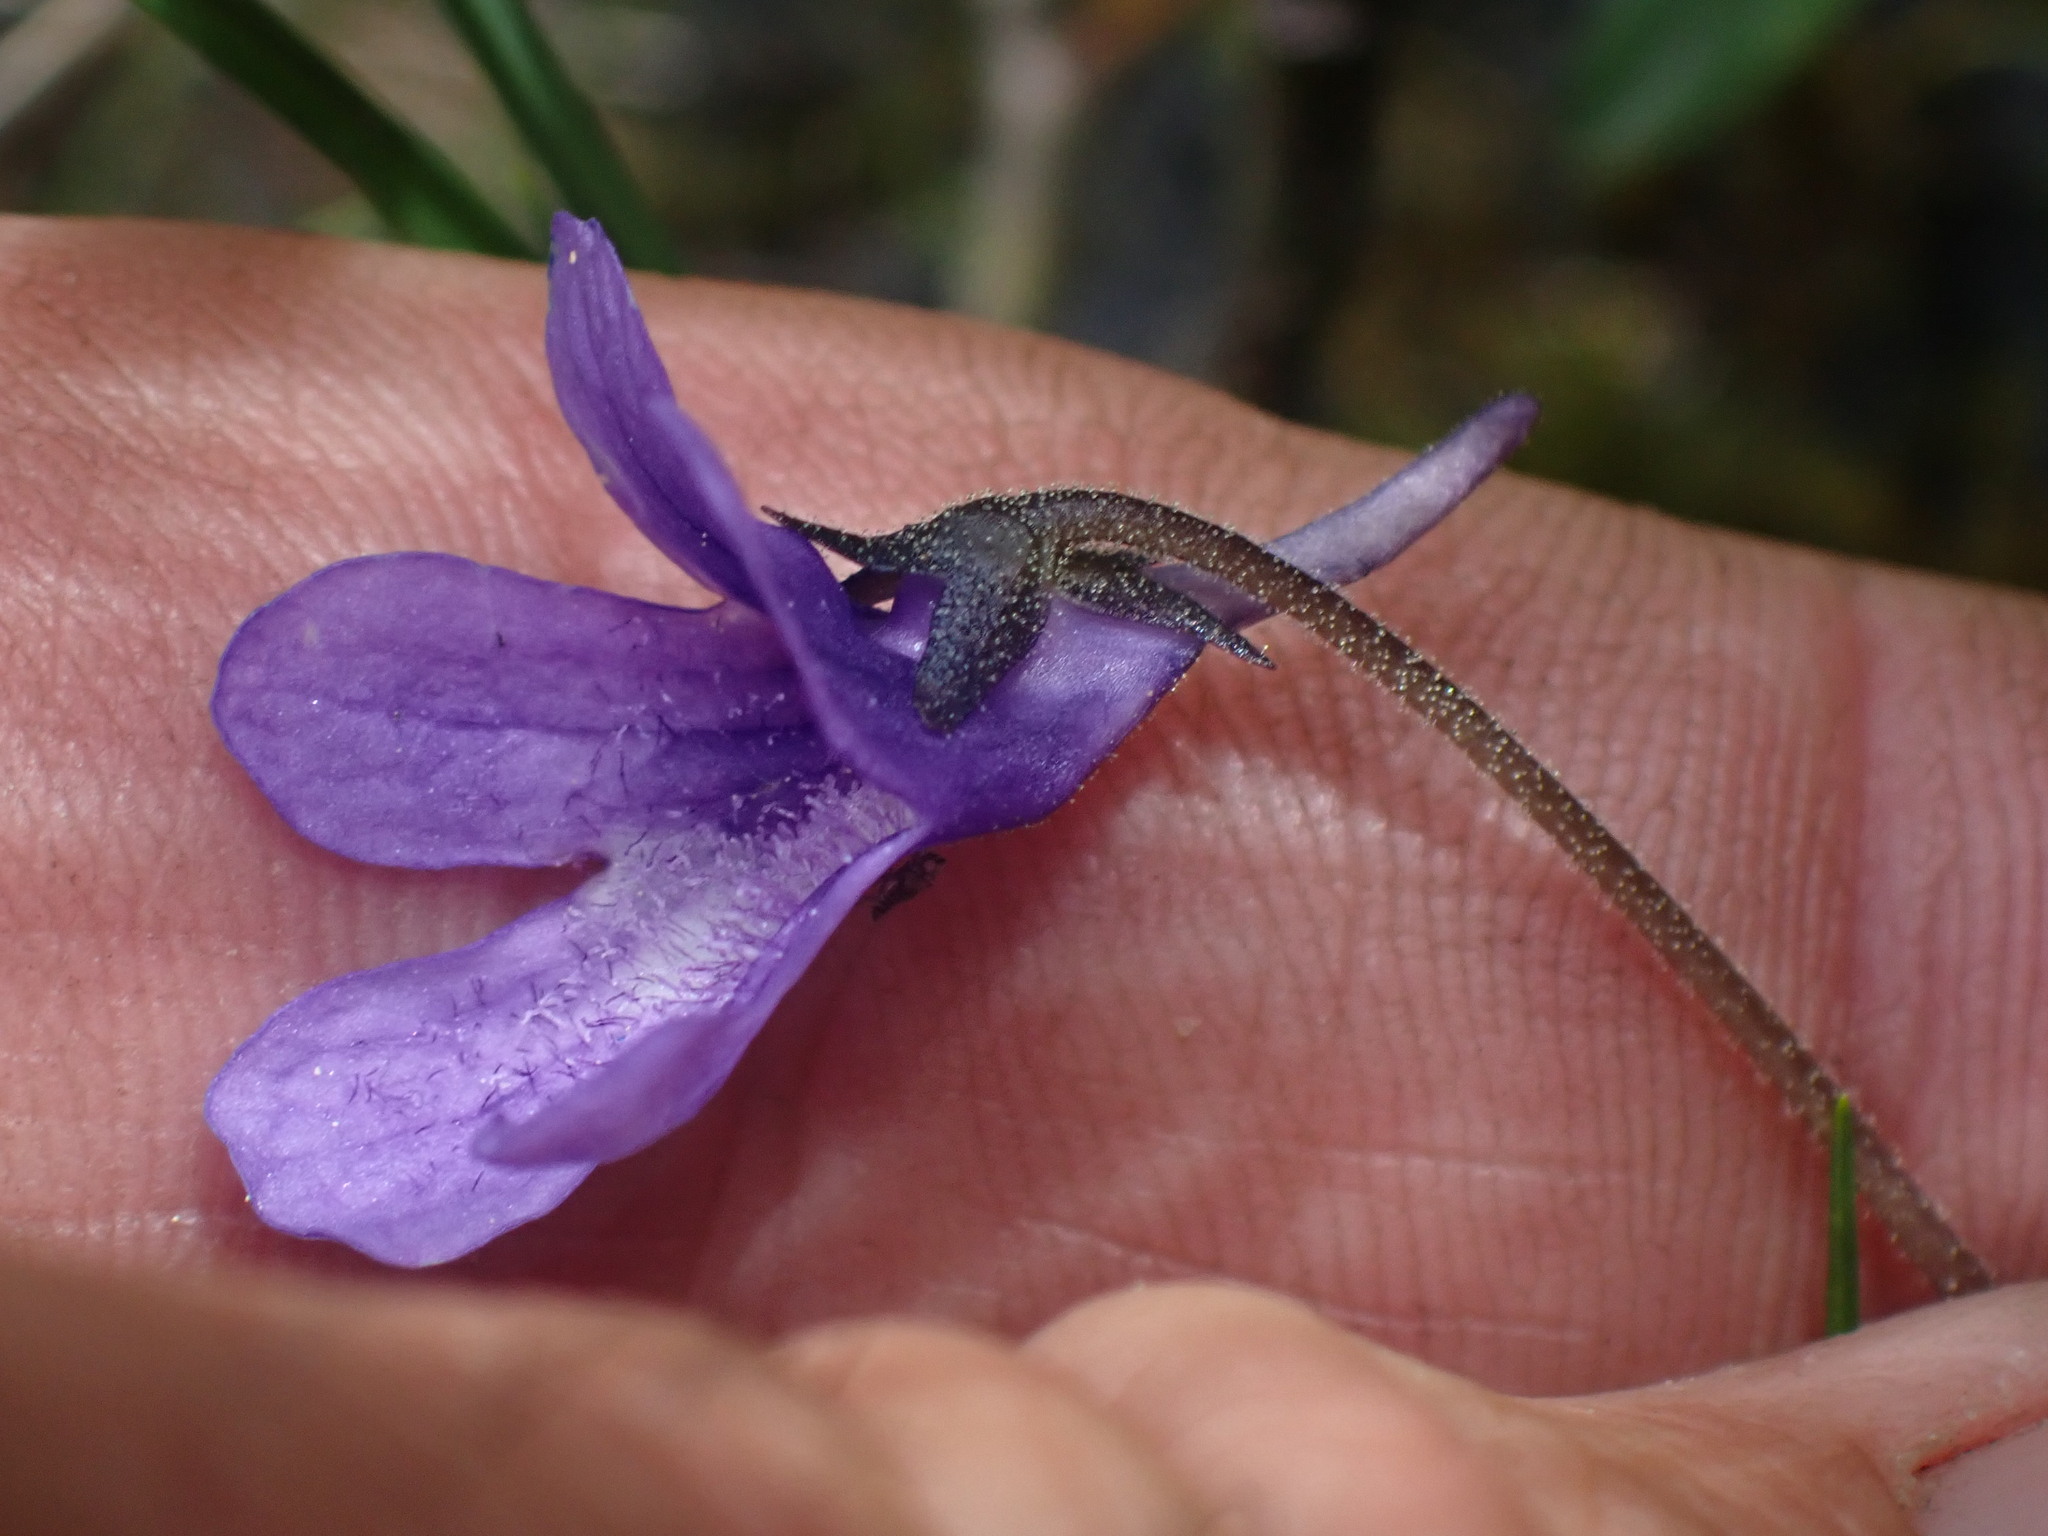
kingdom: Plantae
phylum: Tracheophyta
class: Magnoliopsida
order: Lamiales
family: Lentibulariaceae
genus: Pinguicula
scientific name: Pinguicula vulgaris
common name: Common butterwort
